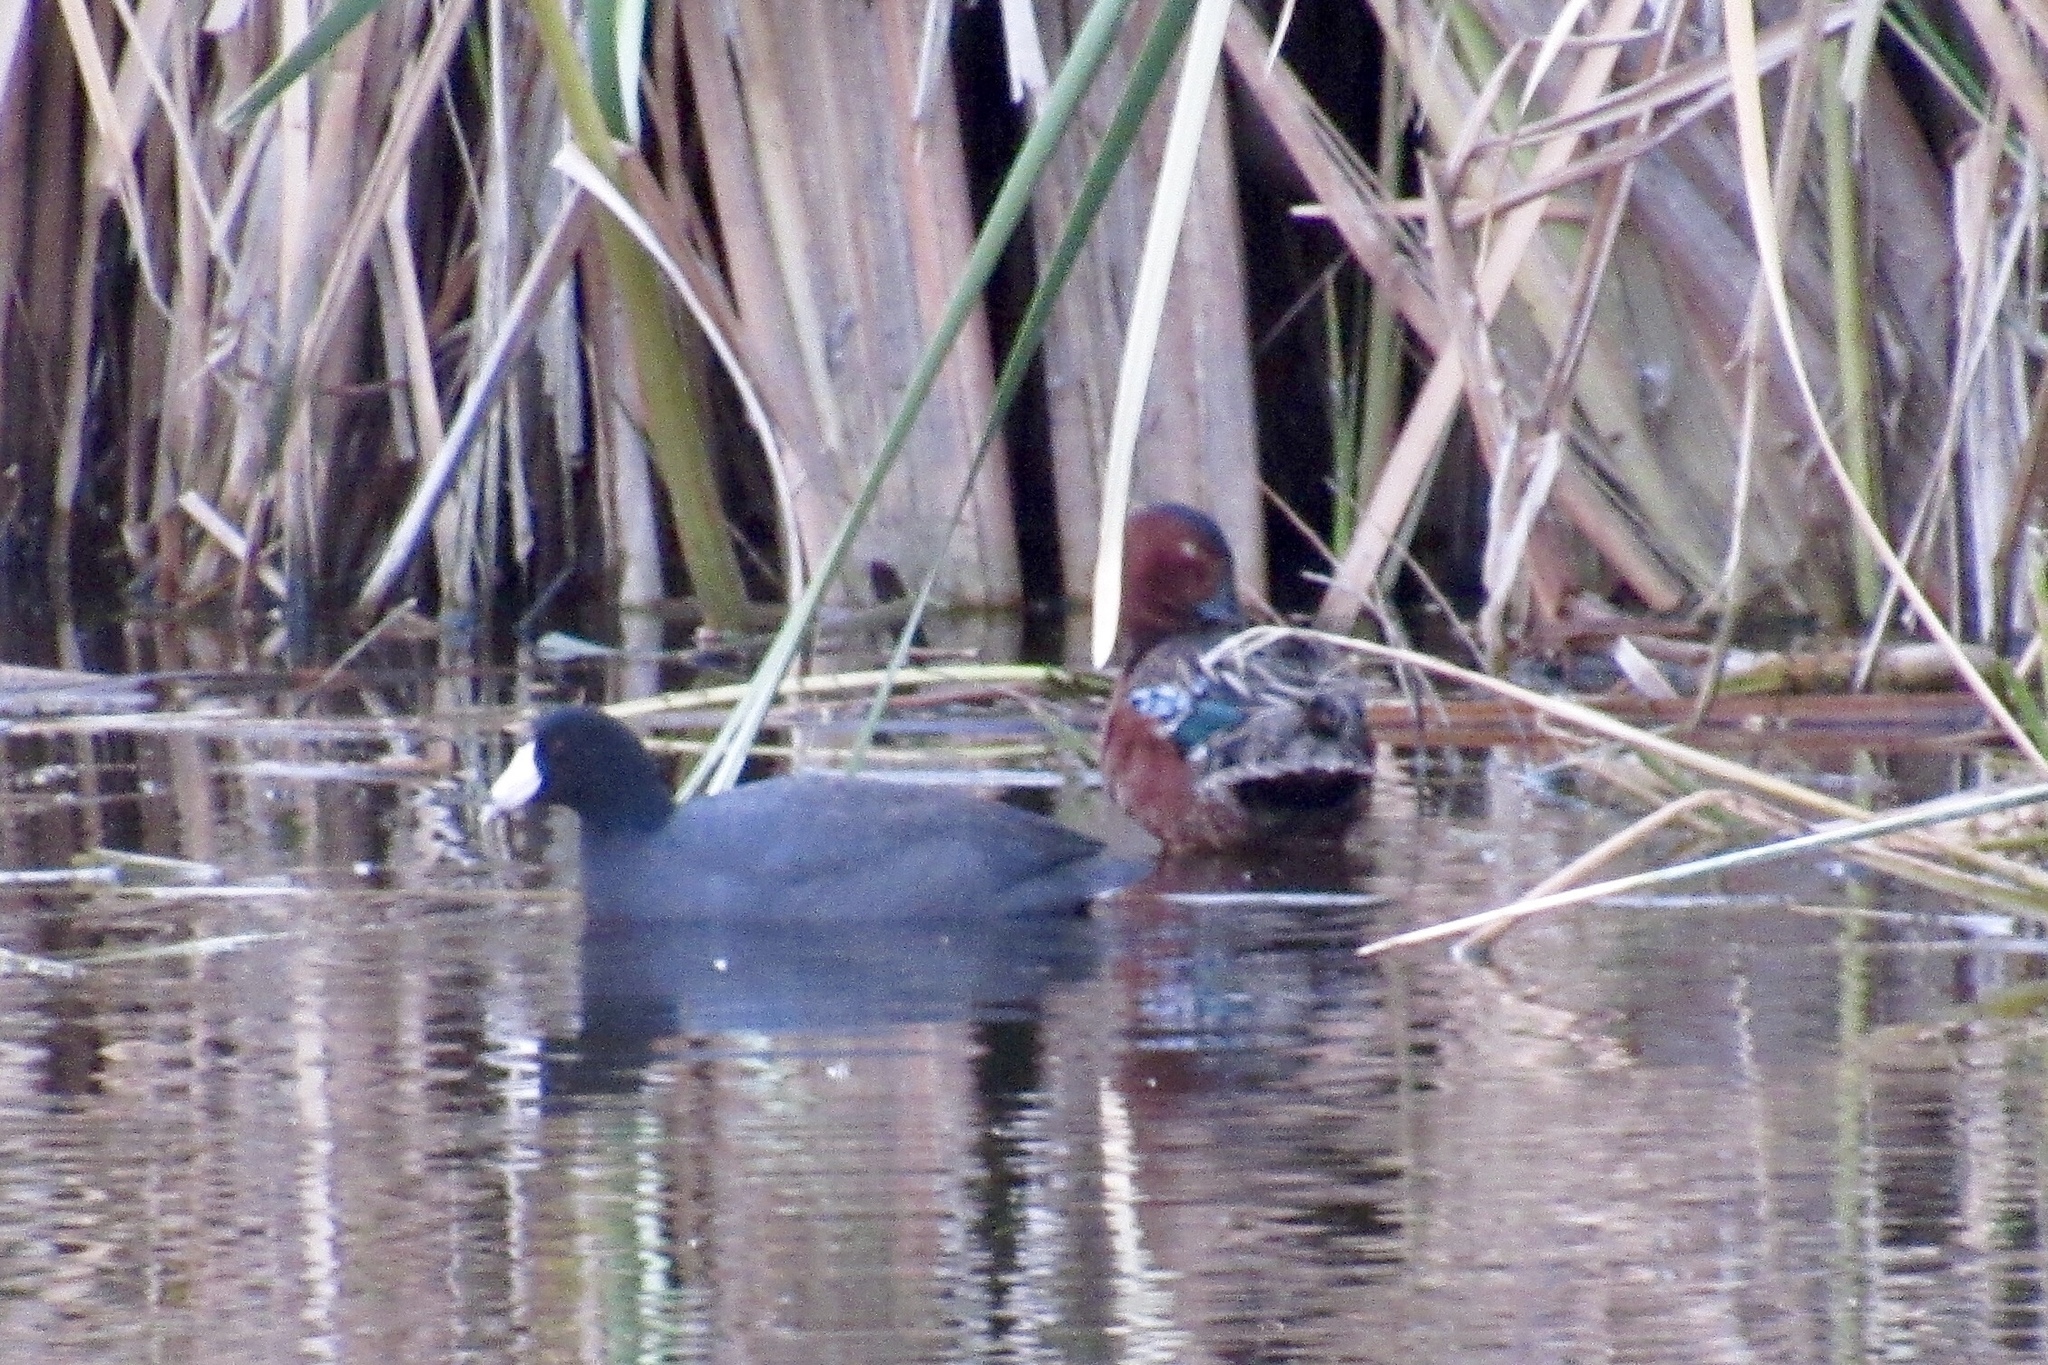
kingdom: Animalia
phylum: Chordata
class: Aves
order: Anseriformes
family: Anatidae
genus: Spatula
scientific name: Spatula cyanoptera
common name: Cinnamon teal
